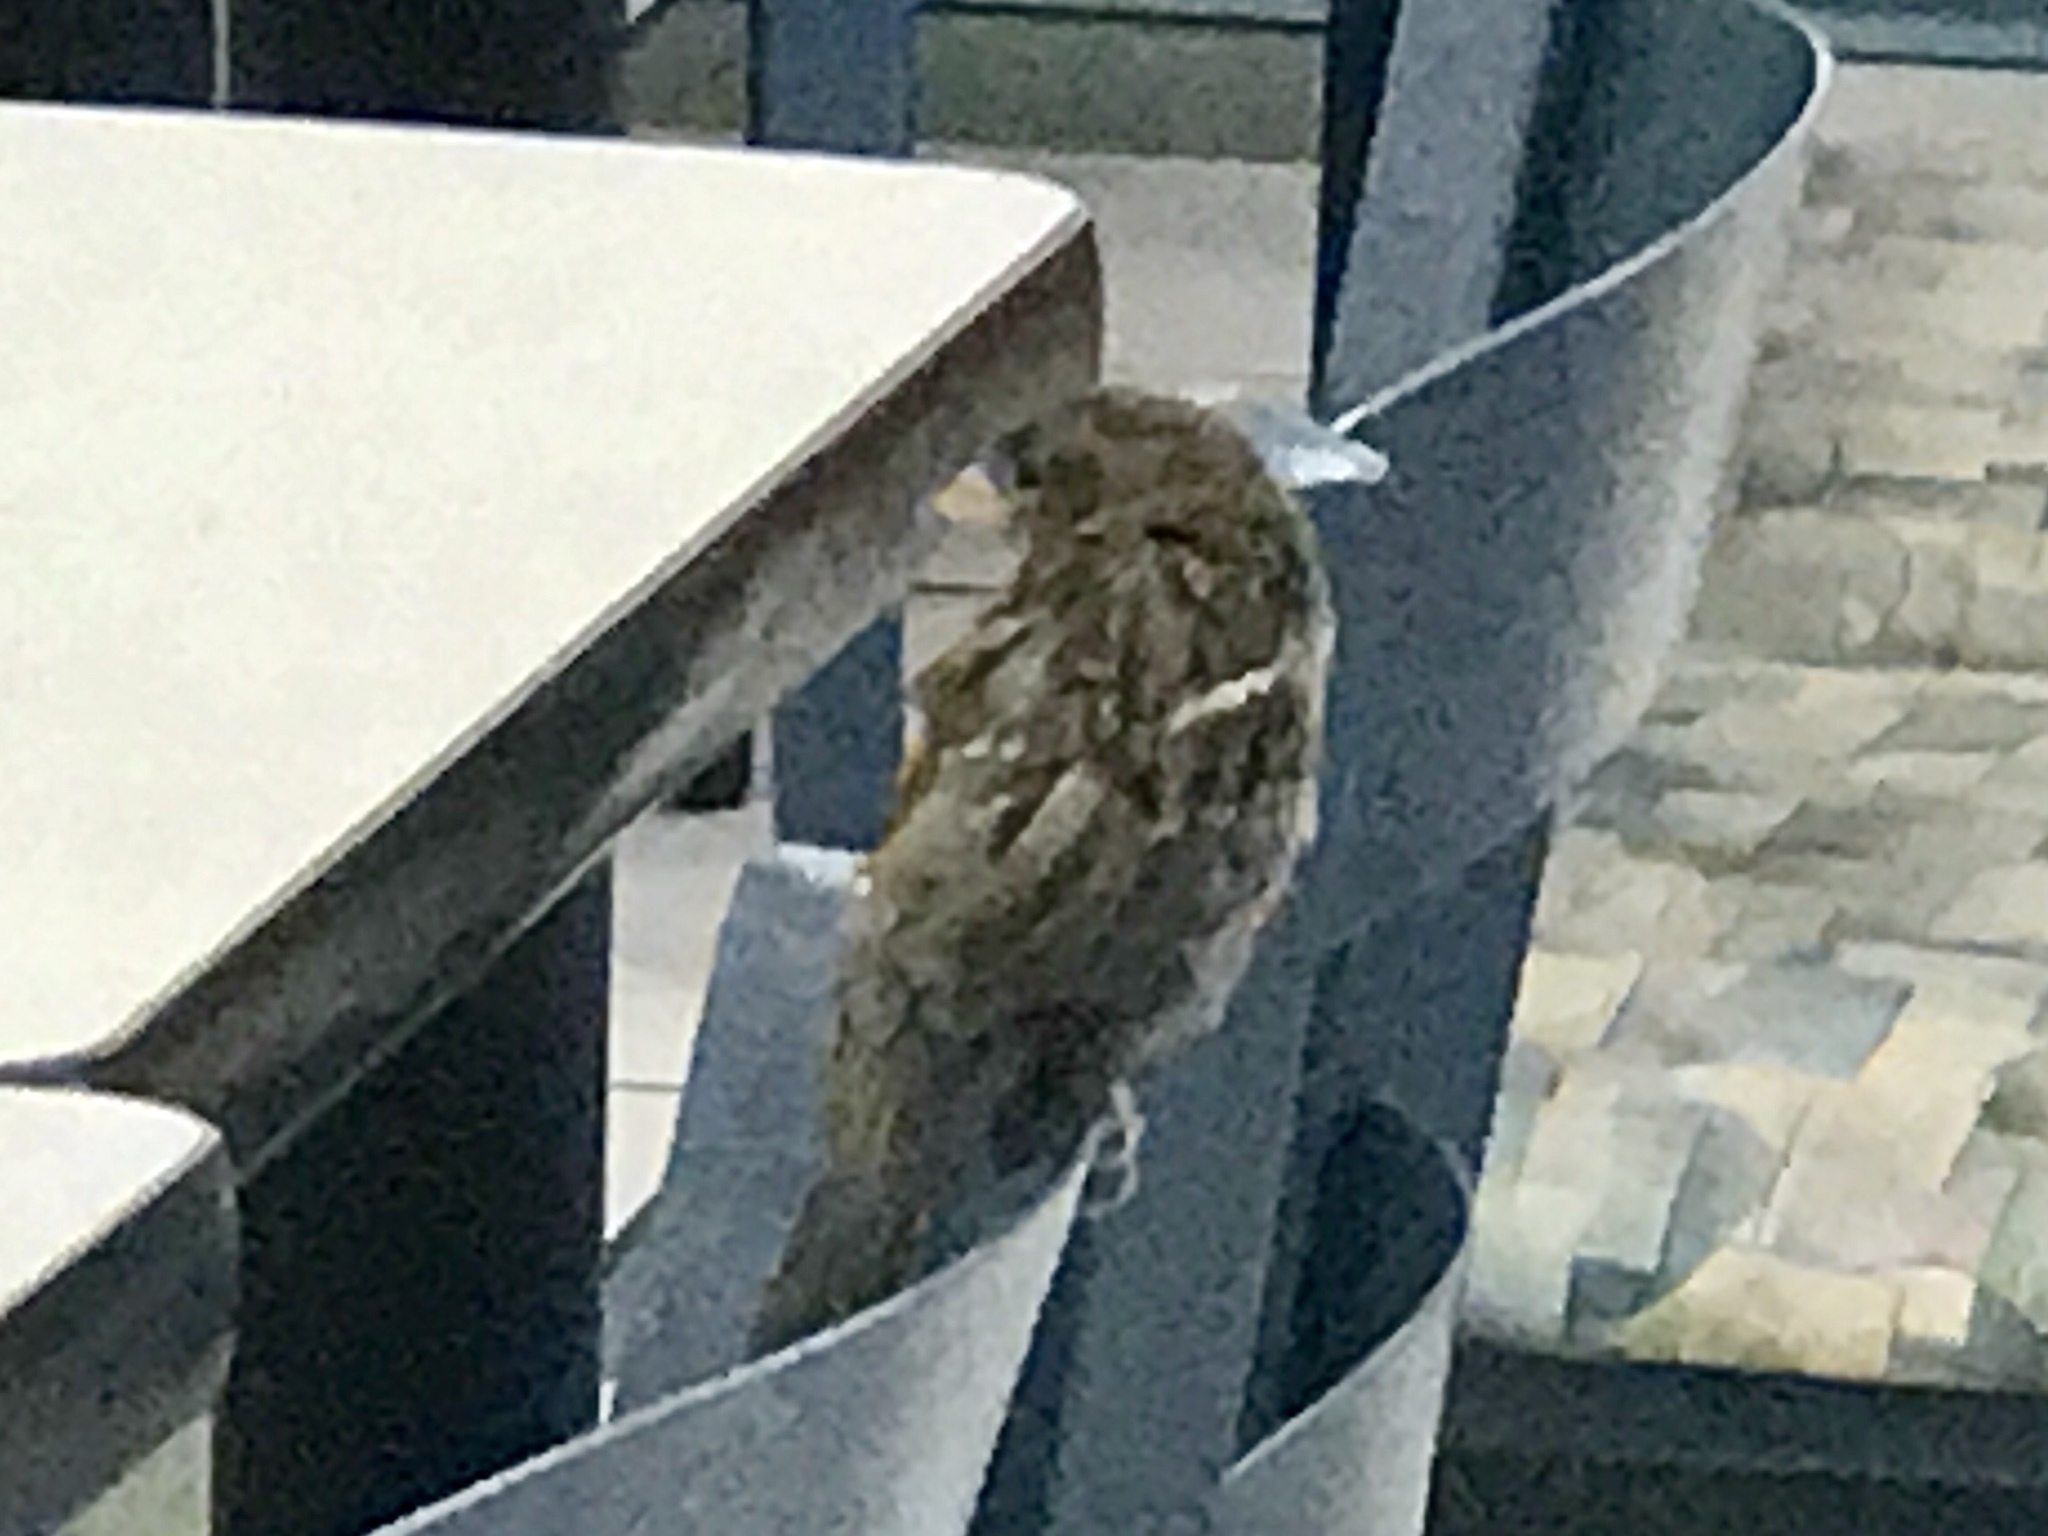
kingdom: Animalia
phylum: Chordata
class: Aves
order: Passeriformes
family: Passeridae
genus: Passer
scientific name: Passer domesticus
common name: House sparrow
